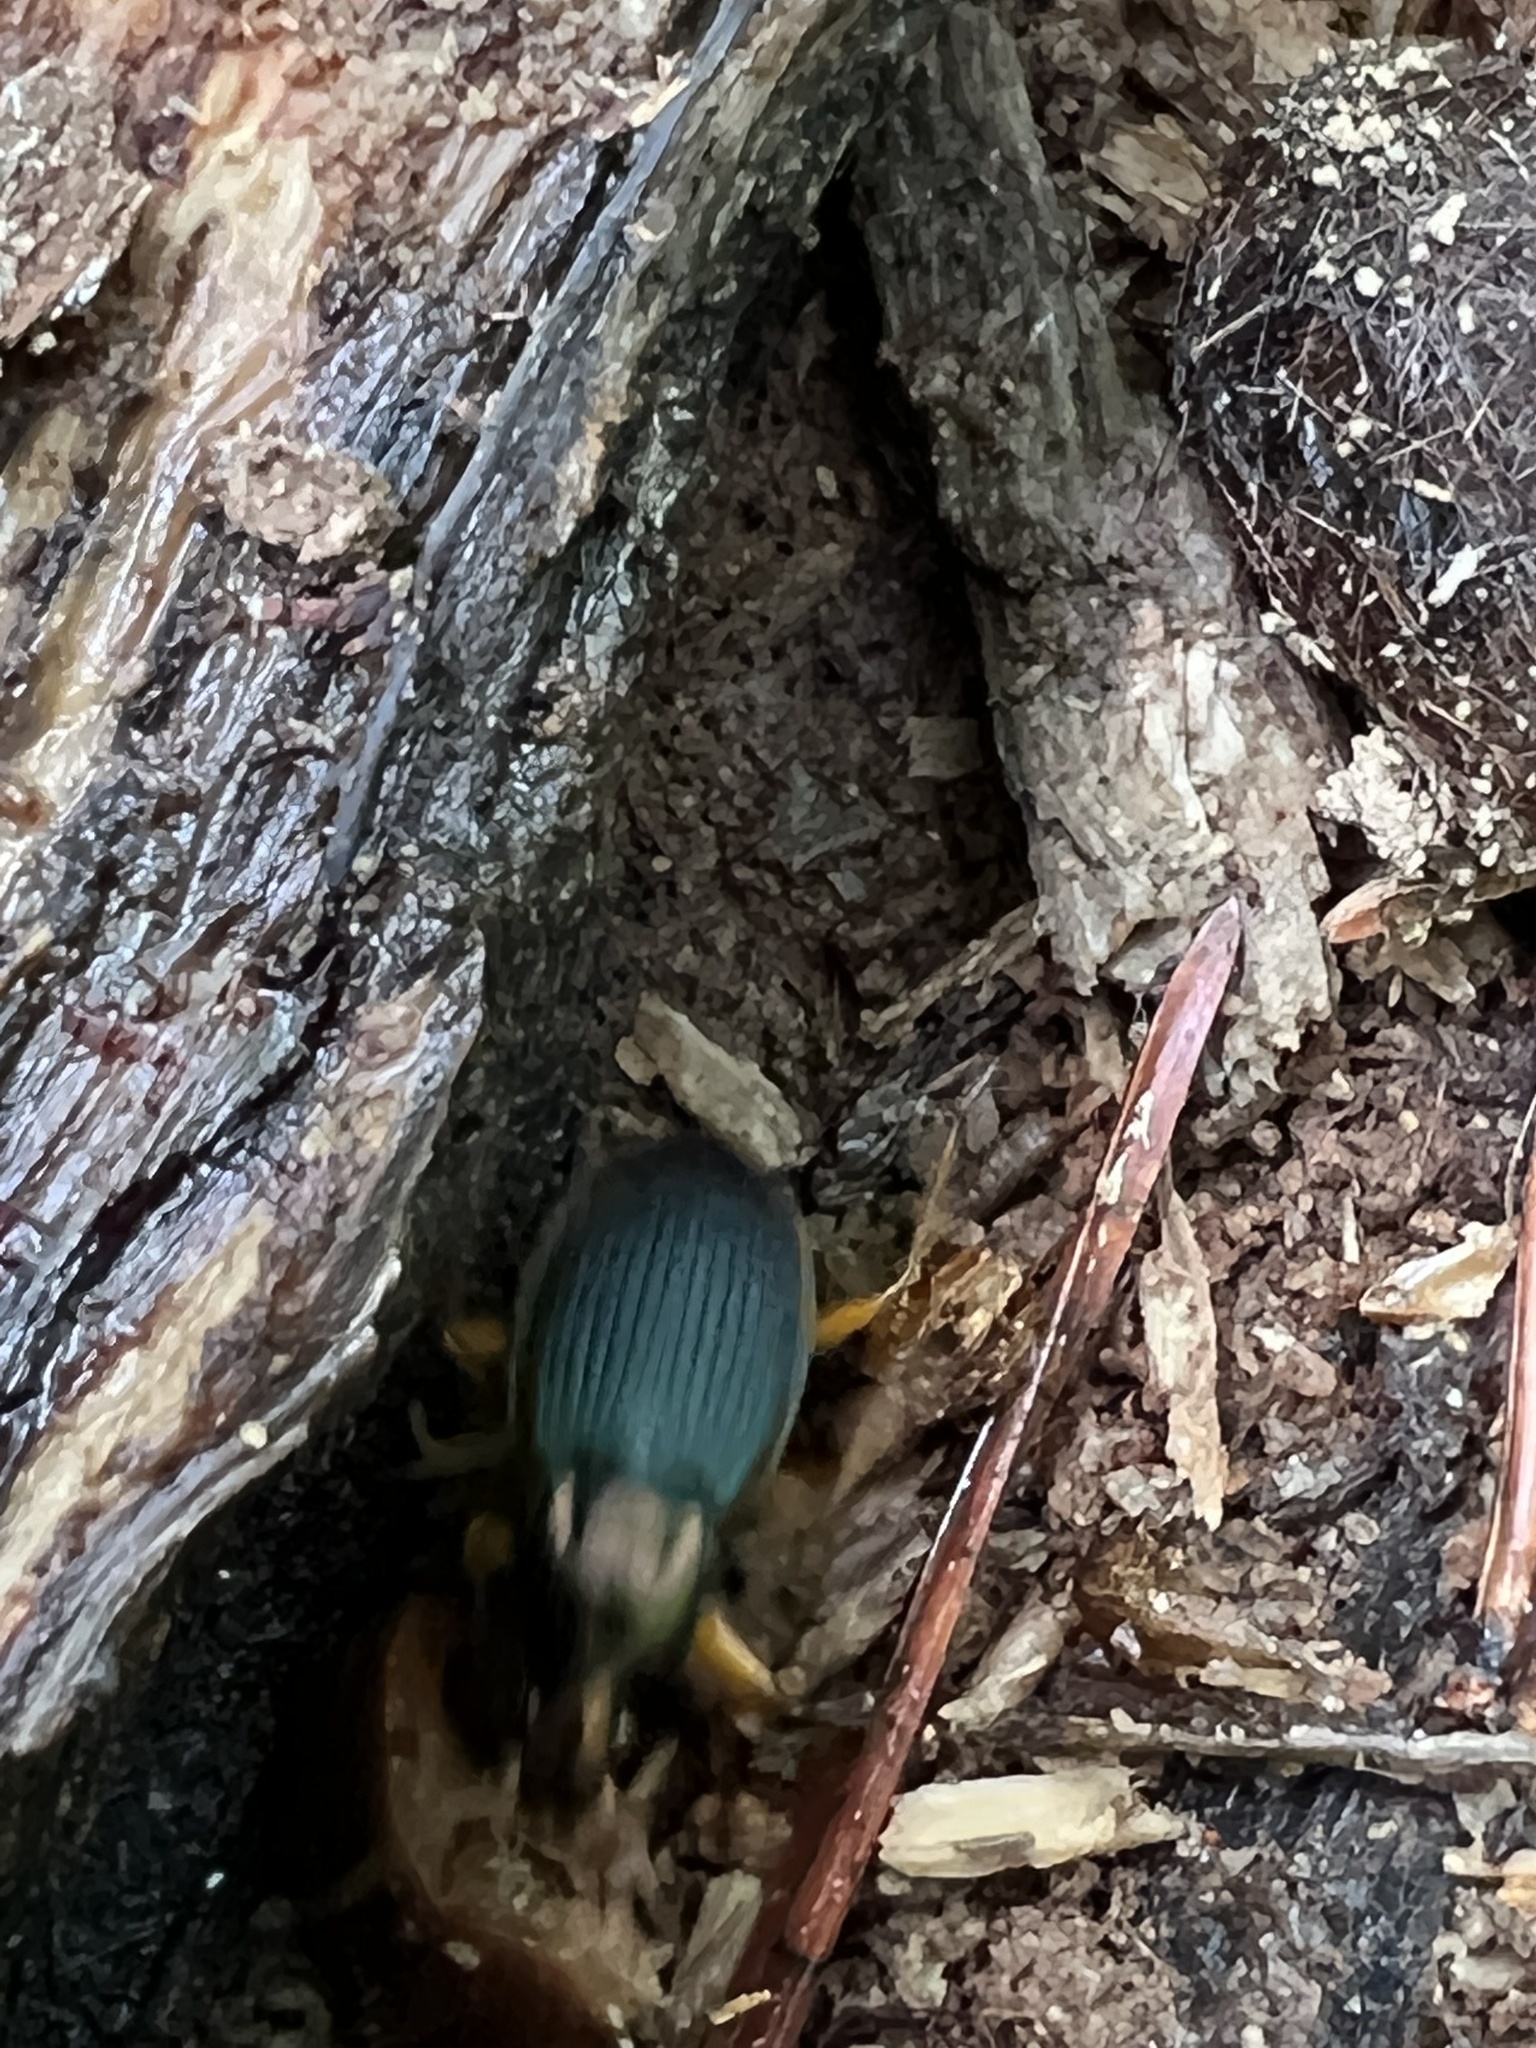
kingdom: Animalia
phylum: Arthropoda
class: Insecta
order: Coleoptera
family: Carabidae
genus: Chlaenius
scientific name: Chlaenius aestivus
